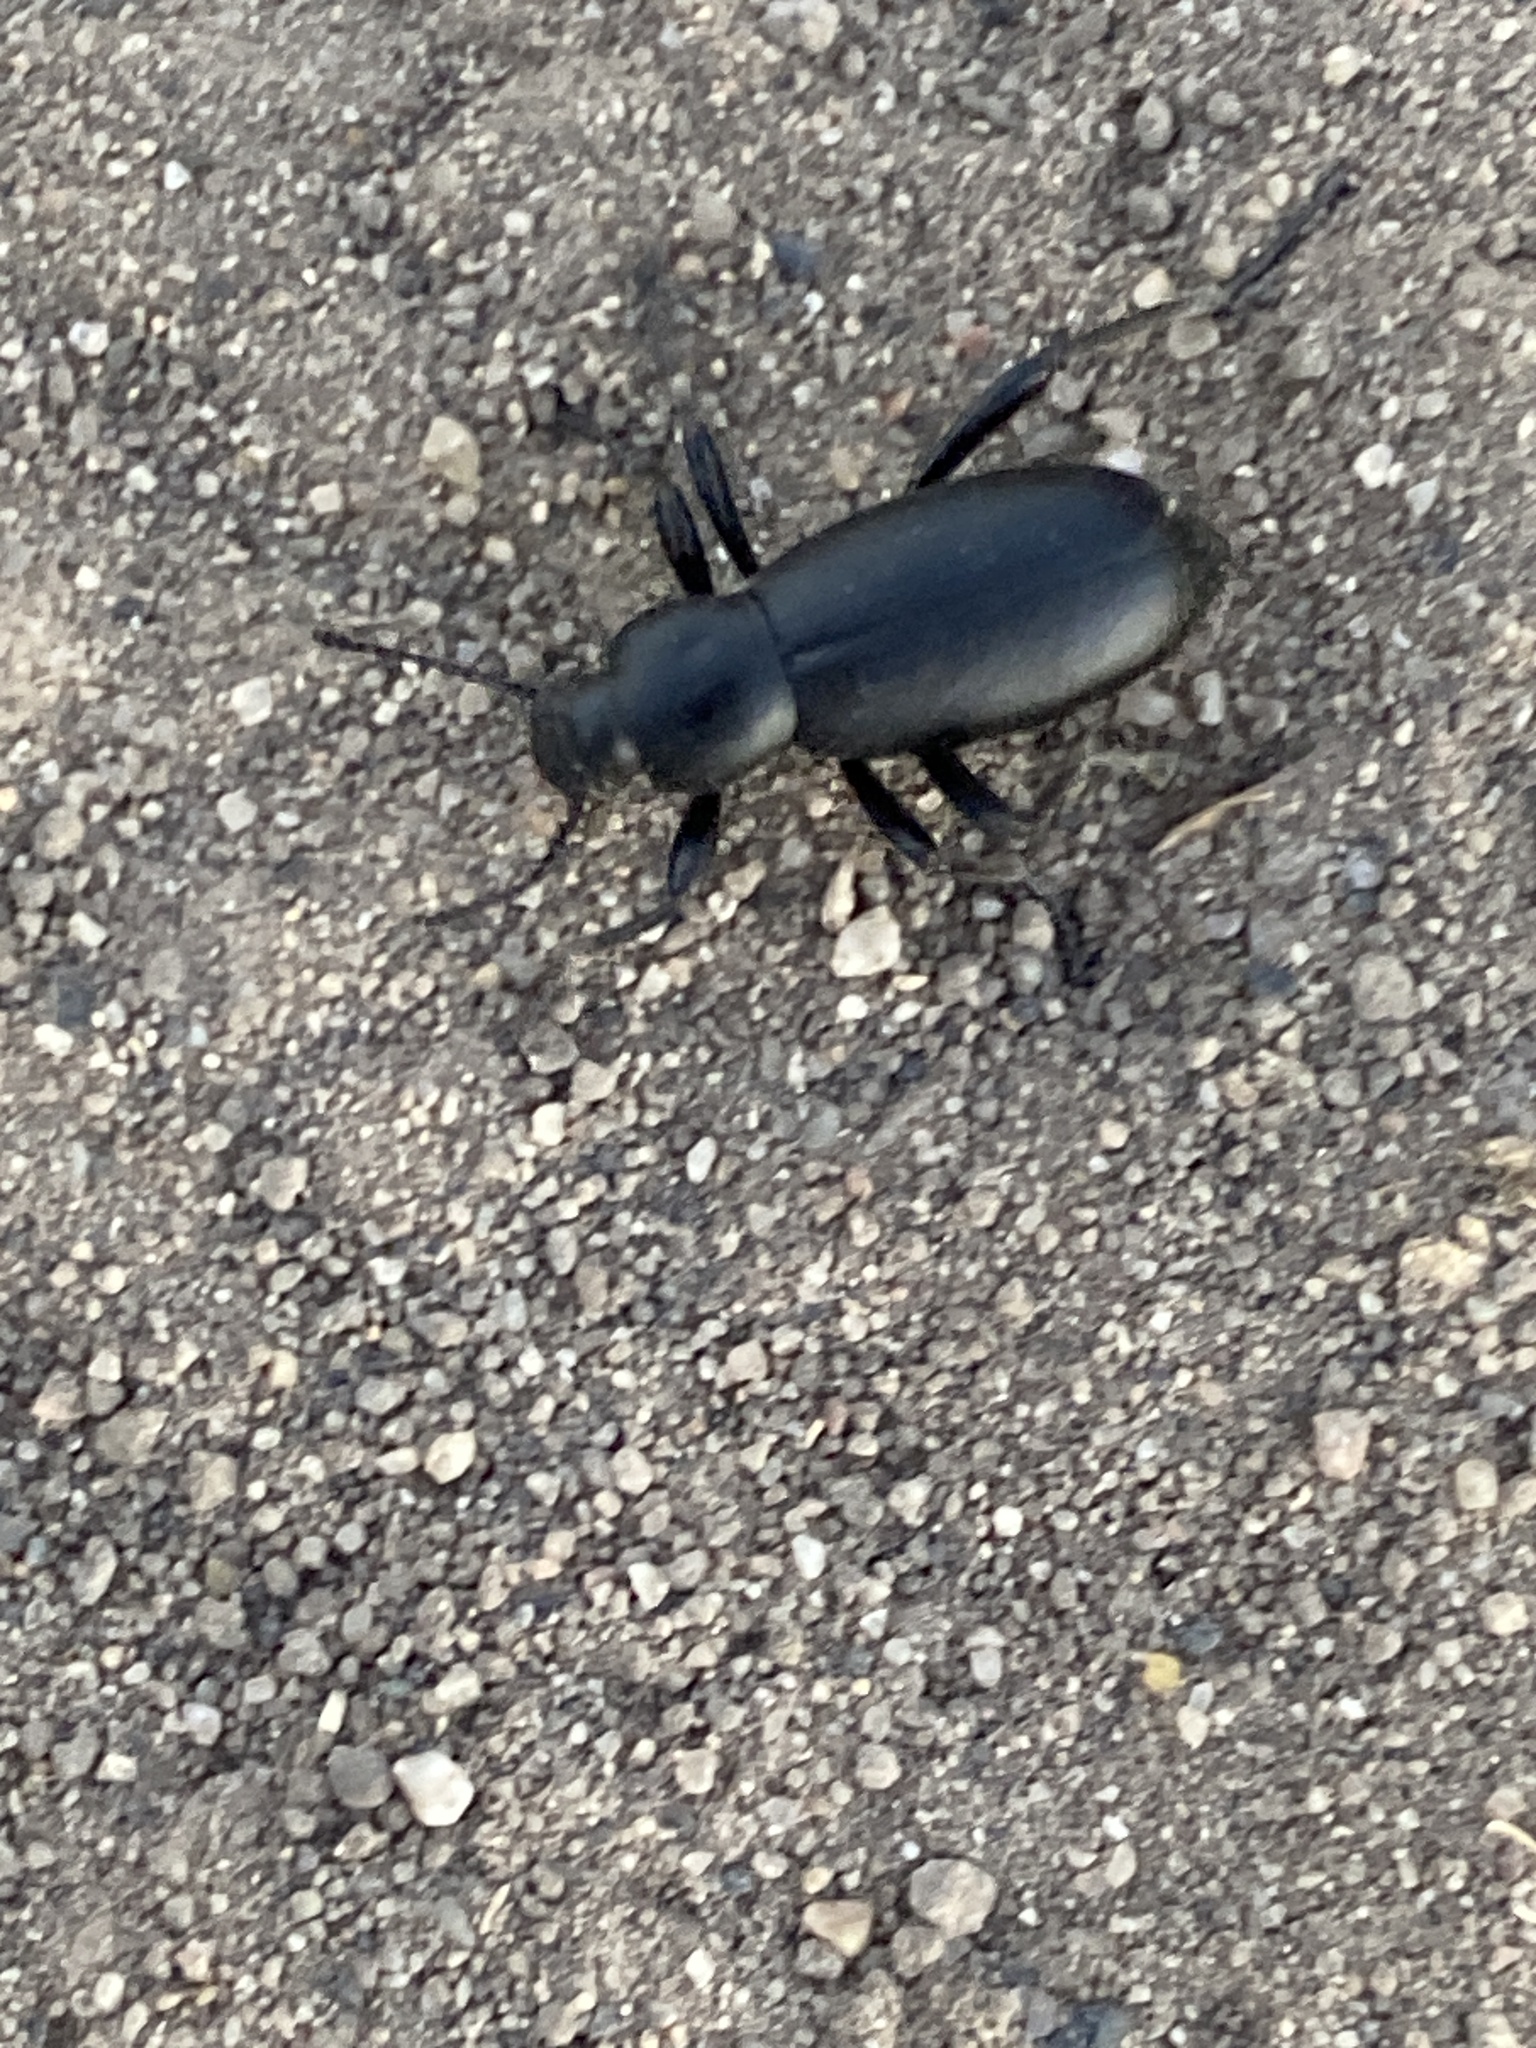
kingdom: Animalia
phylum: Arthropoda
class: Insecta
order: Coleoptera
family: Tenebrionidae
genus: Eleodes
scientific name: Eleodes quadricollis
